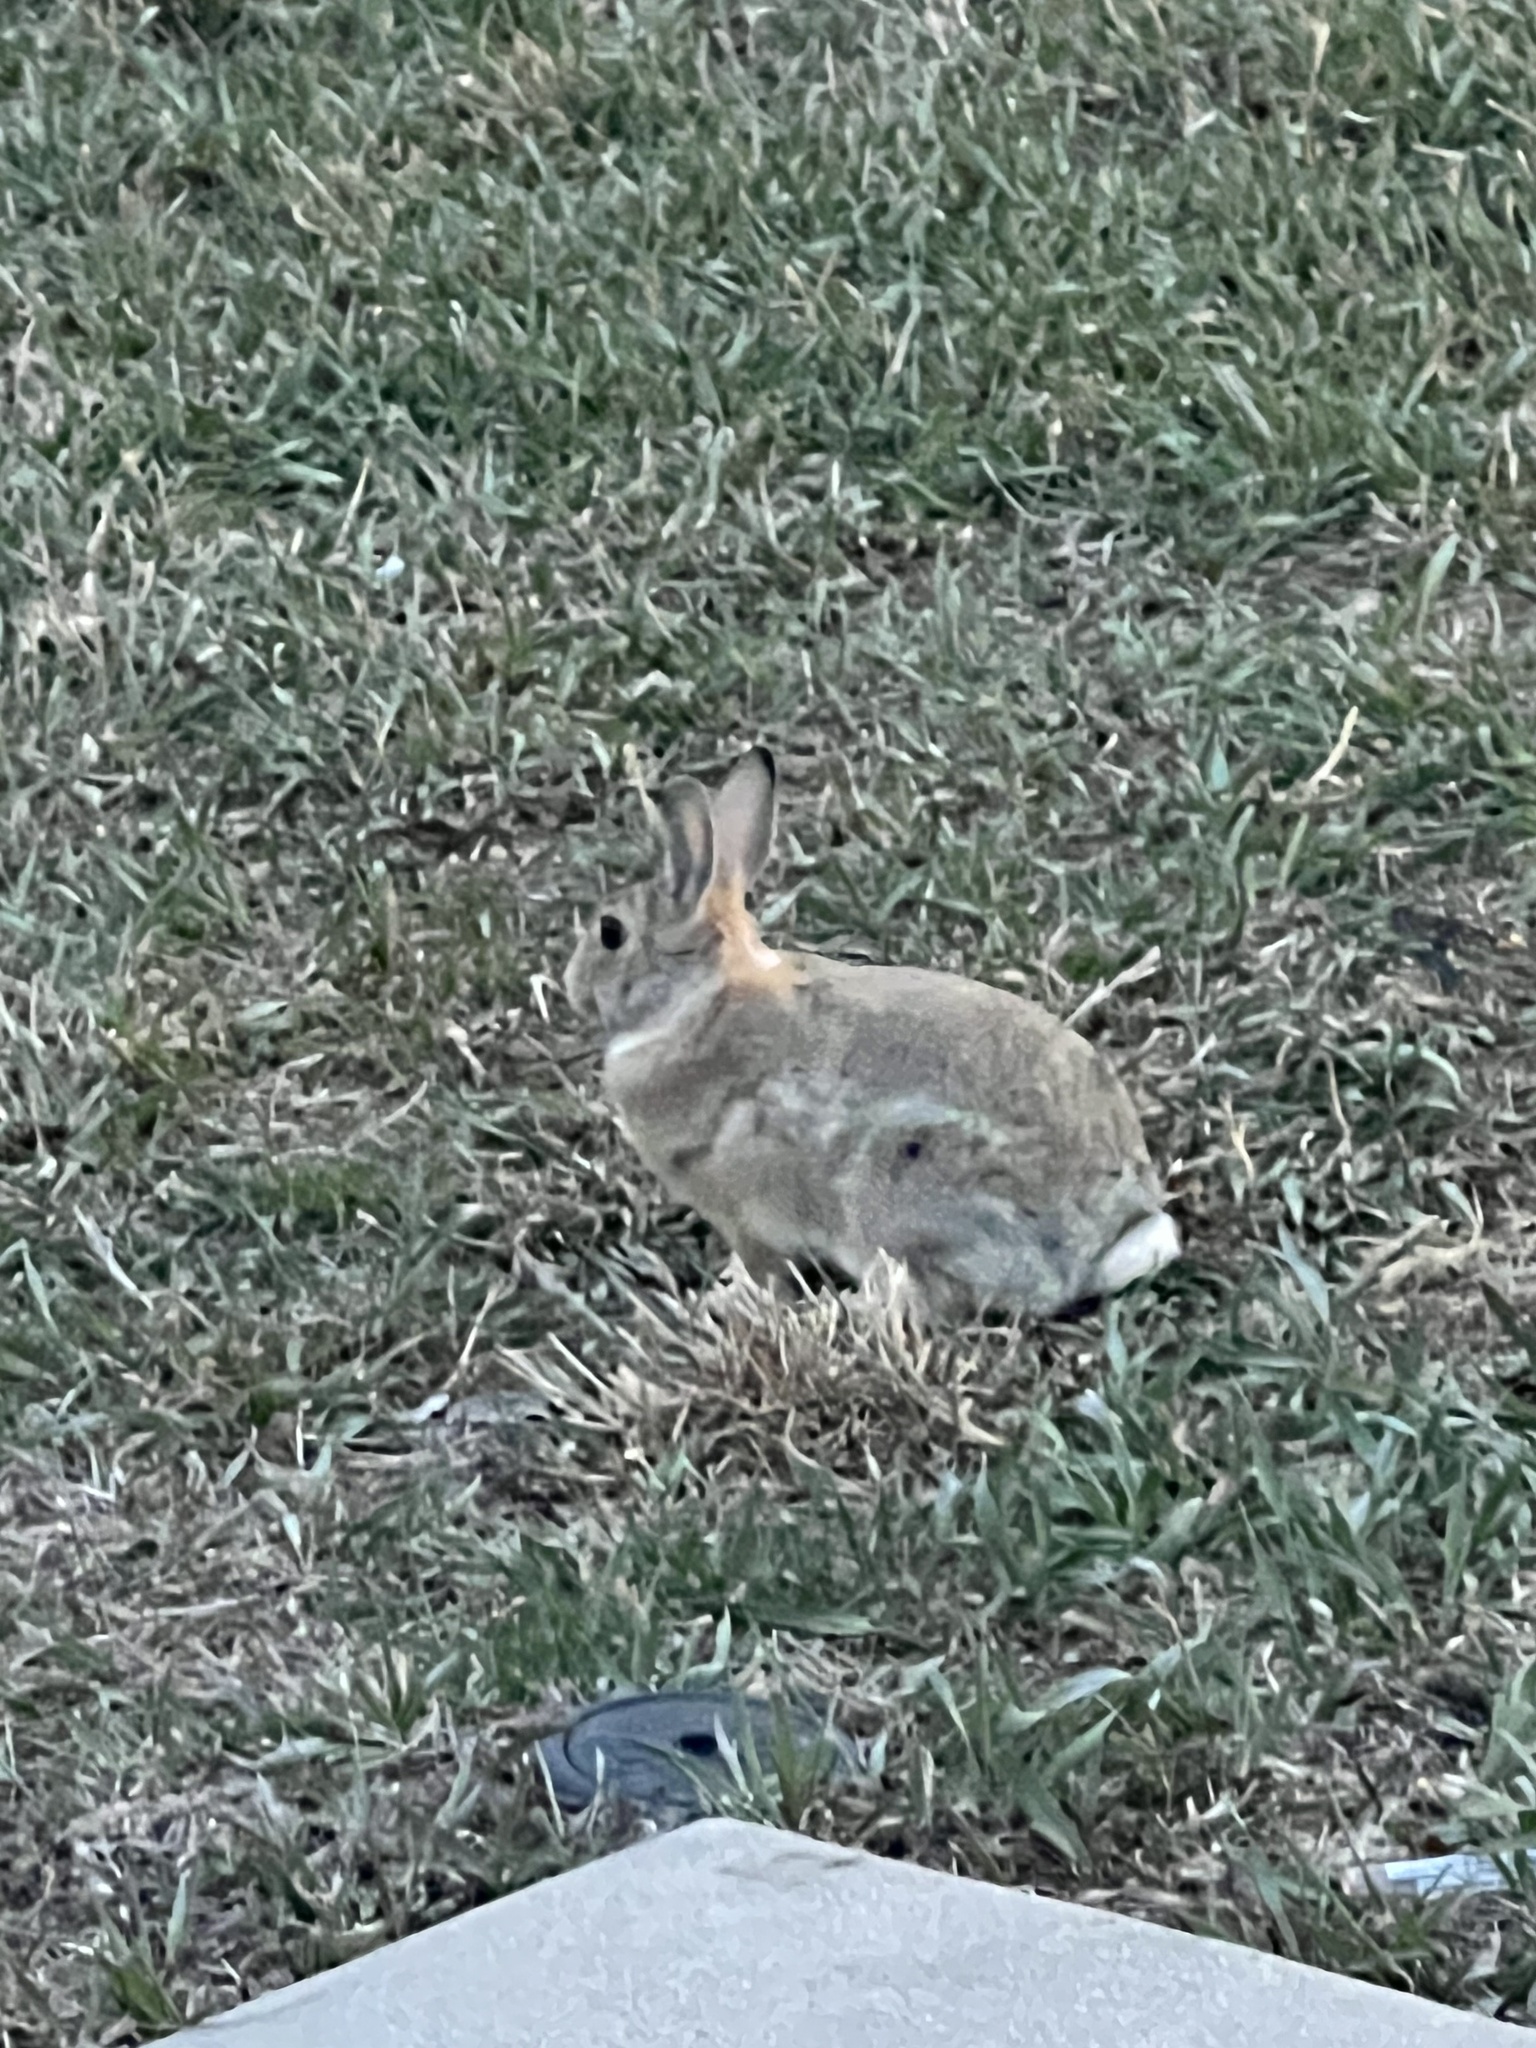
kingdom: Animalia
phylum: Chordata
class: Mammalia
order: Lagomorpha
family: Leporidae
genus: Sylvilagus
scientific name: Sylvilagus audubonii
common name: Desert cottontail
